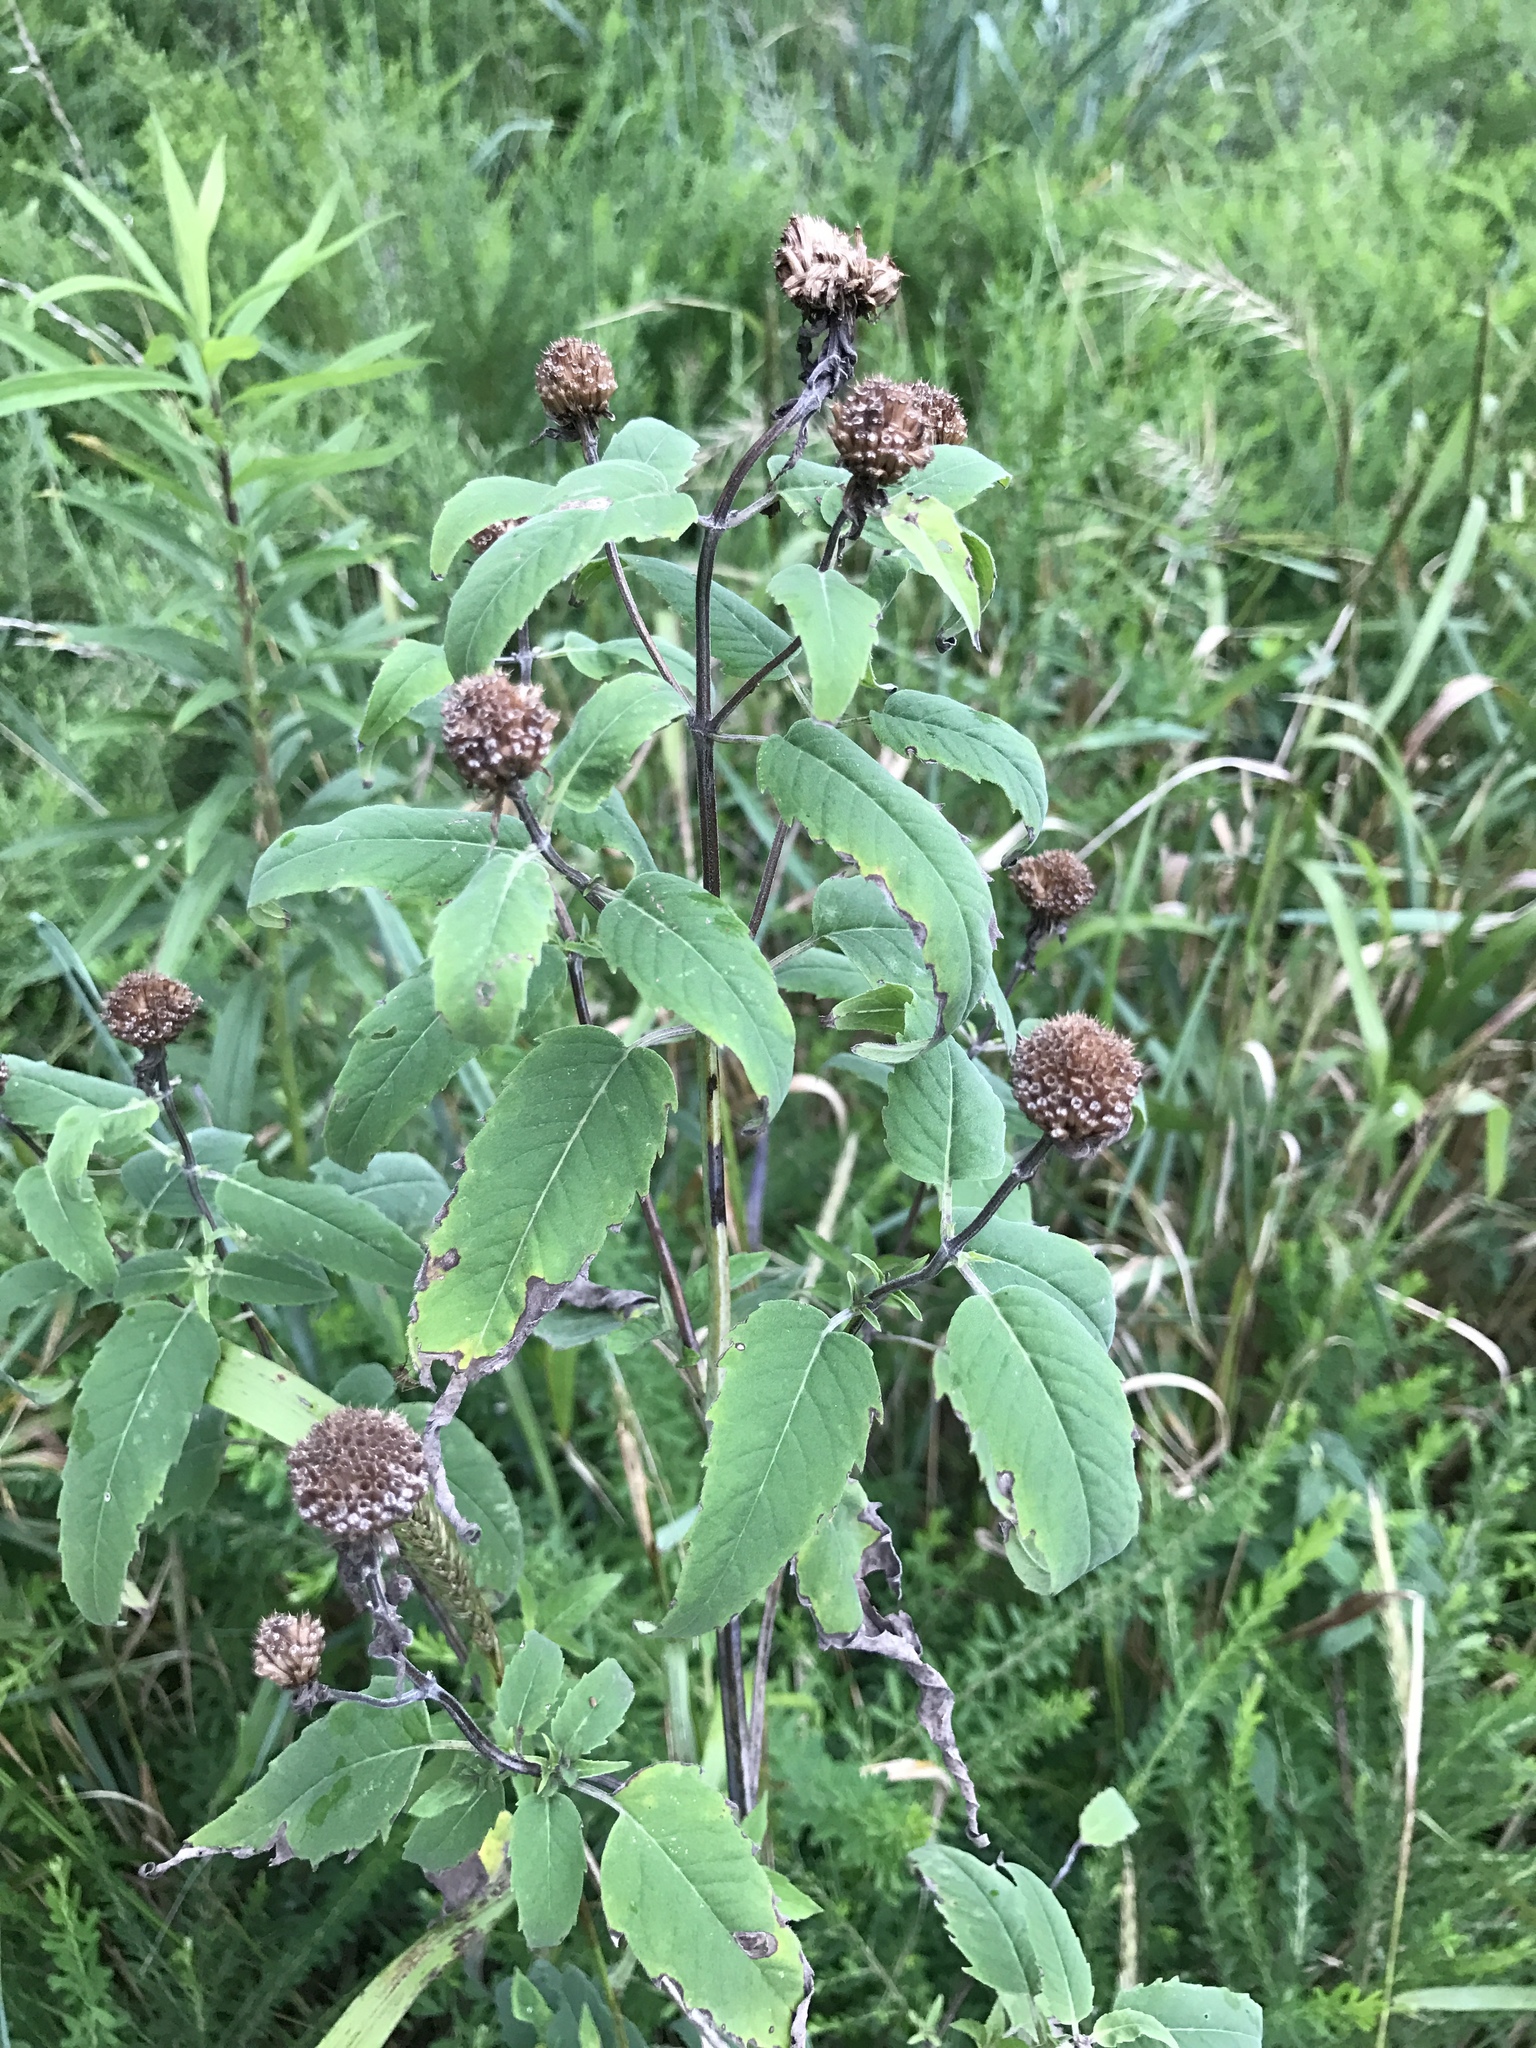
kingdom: Plantae
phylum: Tracheophyta
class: Magnoliopsida
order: Lamiales
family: Lamiaceae
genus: Monarda
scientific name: Monarda fistulosa
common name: Purple beebalm
